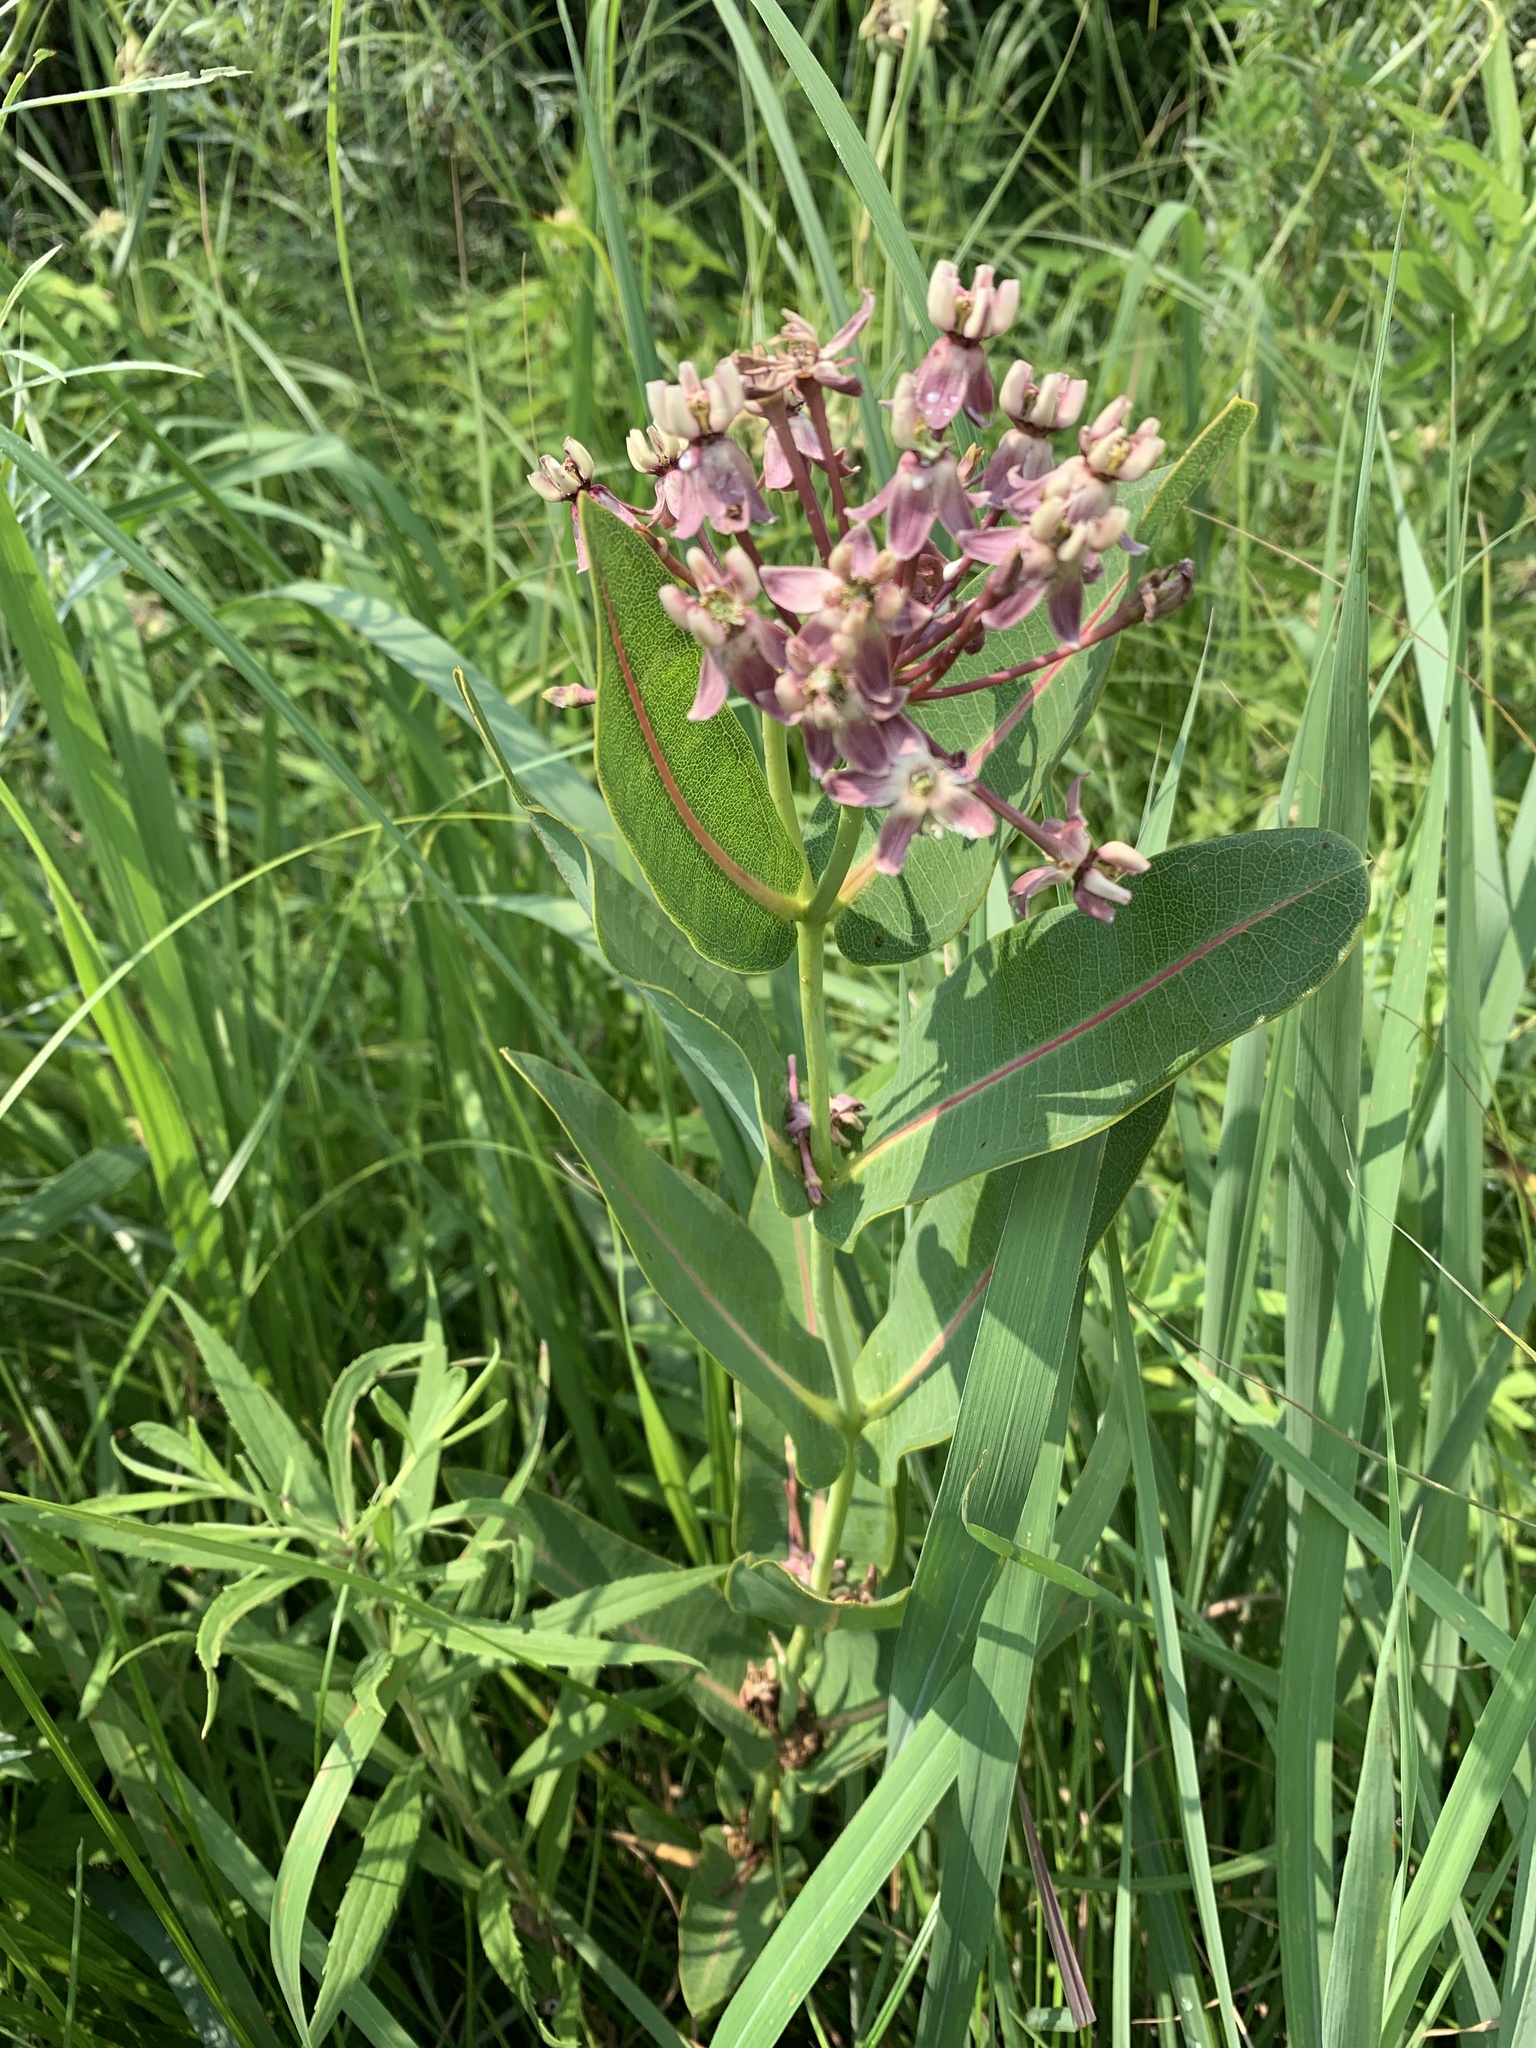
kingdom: Plantae
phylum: Tracheophyta
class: Magnoliopsida
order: Gentianales
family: Apocynaceae
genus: Asclepias
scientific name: Asclepias sullivantii
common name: Prairie milkweed
